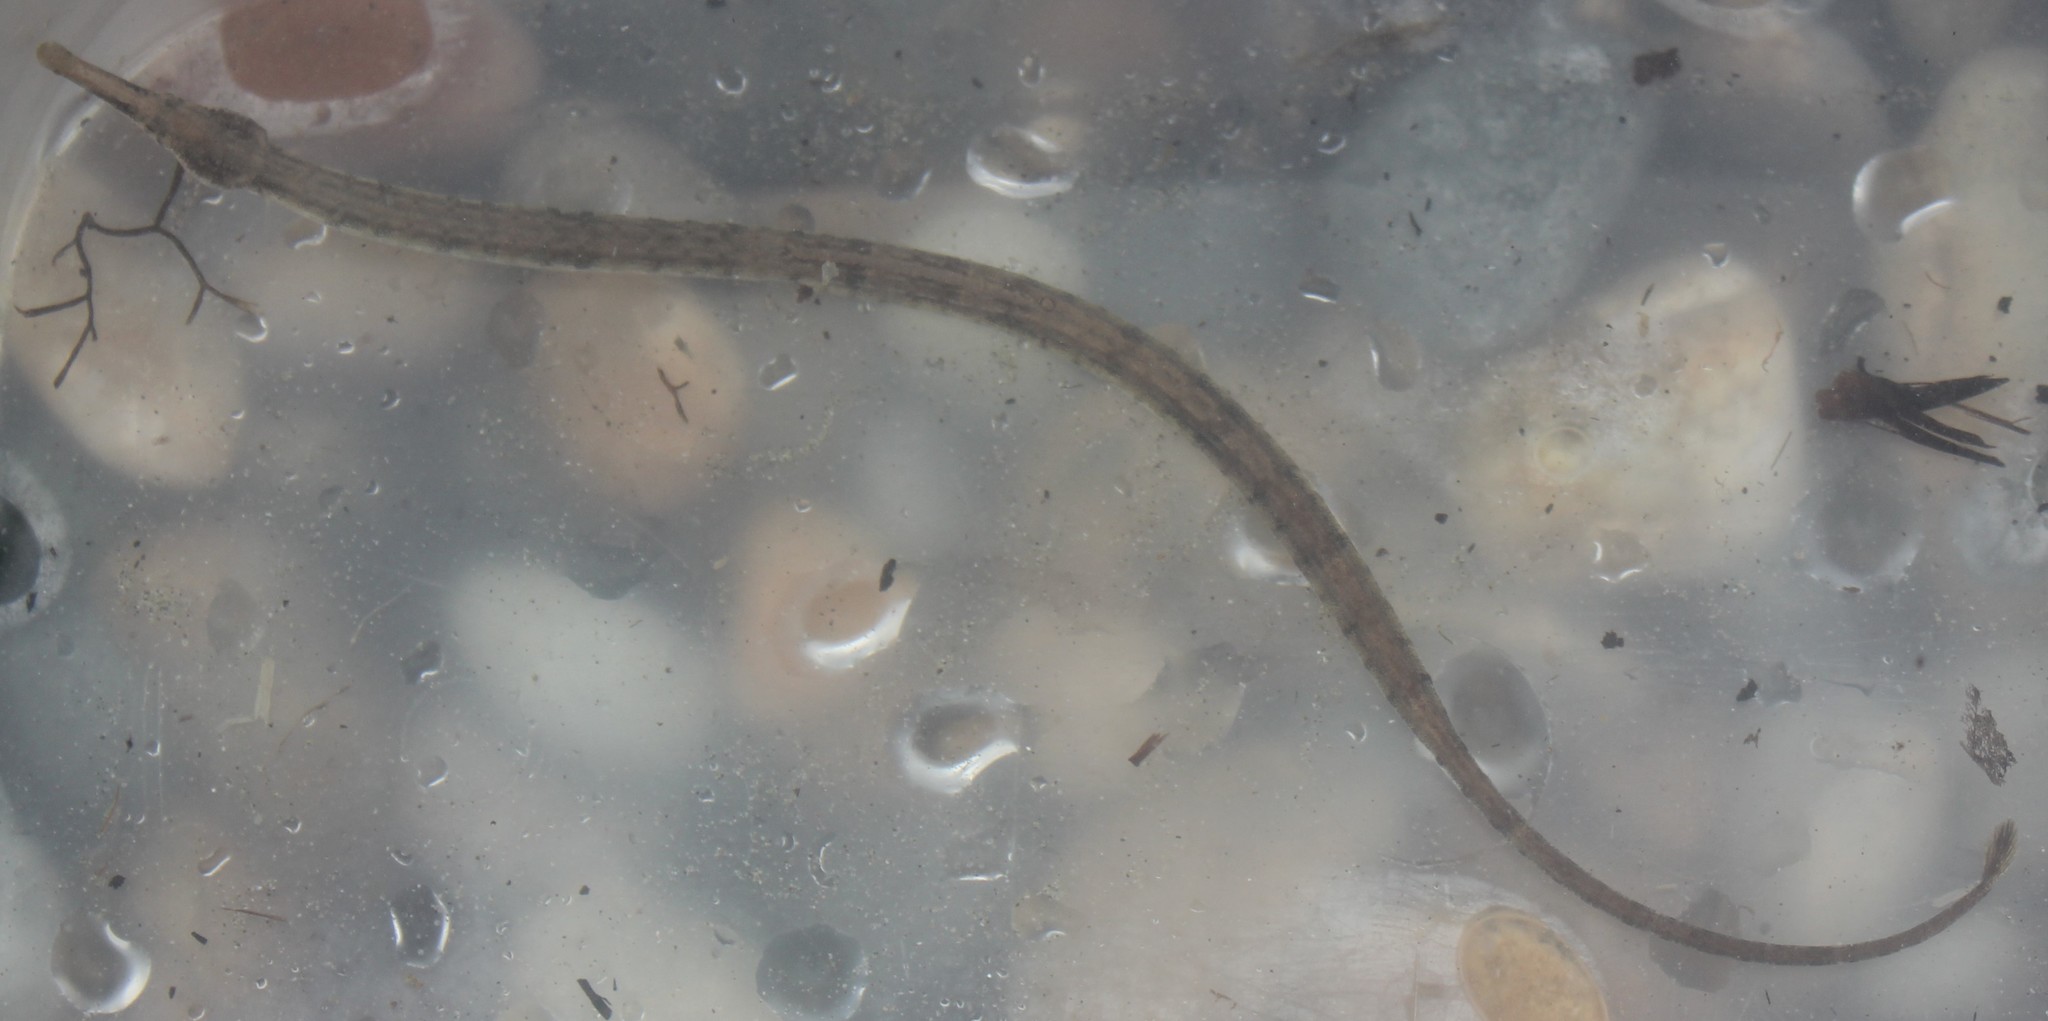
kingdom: Animalia
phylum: Chordata
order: Syngnathiformes
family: Syngnathidae
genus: Syngnathus
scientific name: Syngnathus
